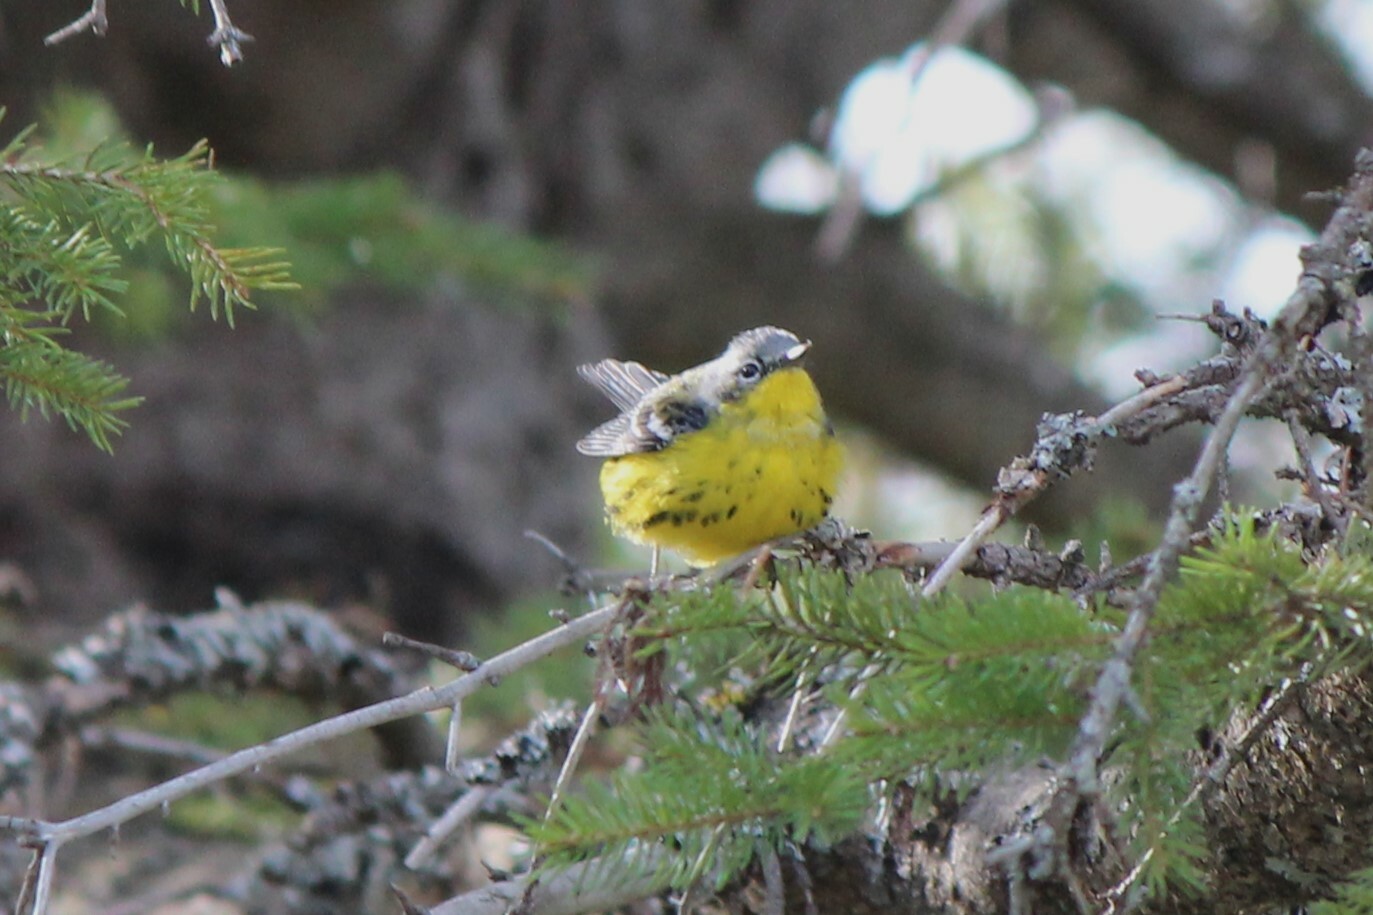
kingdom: Animalia
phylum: Chordata
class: Aves
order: Passeriformes
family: Parulidae
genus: Setophaga
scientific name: Setophaga magnolia
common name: Magnolia warbler
